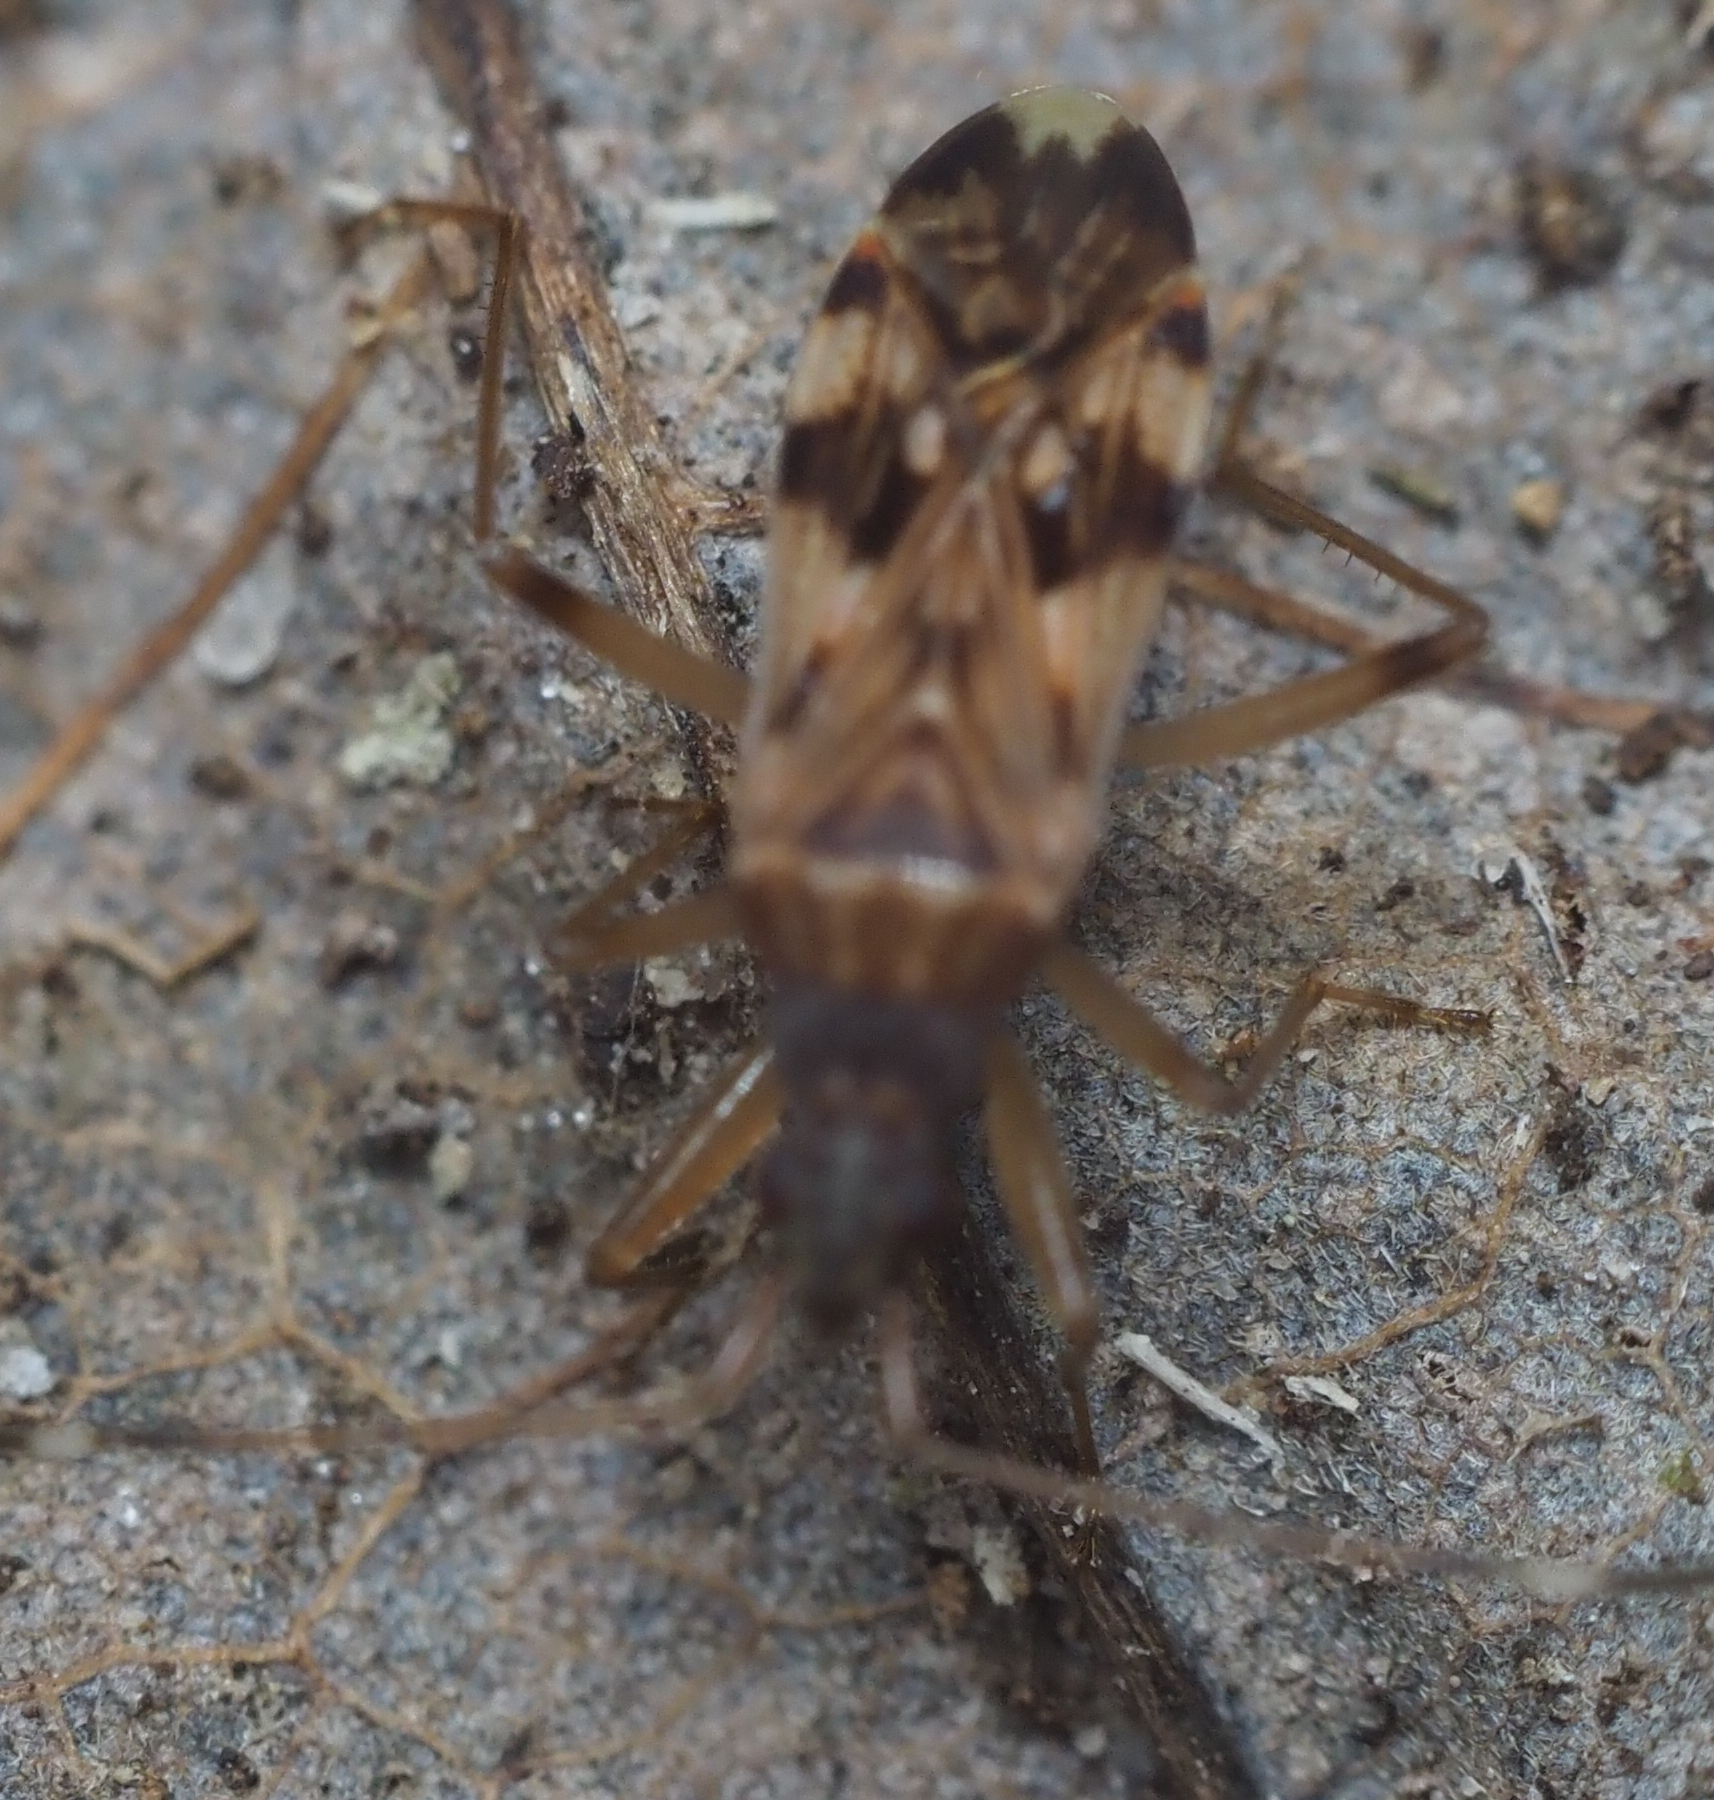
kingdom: Animalia
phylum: Arthropoda
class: Insecta
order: Hemiptera
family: Rhyparochromidae
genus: Ozophora
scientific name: Ozophora picturata
